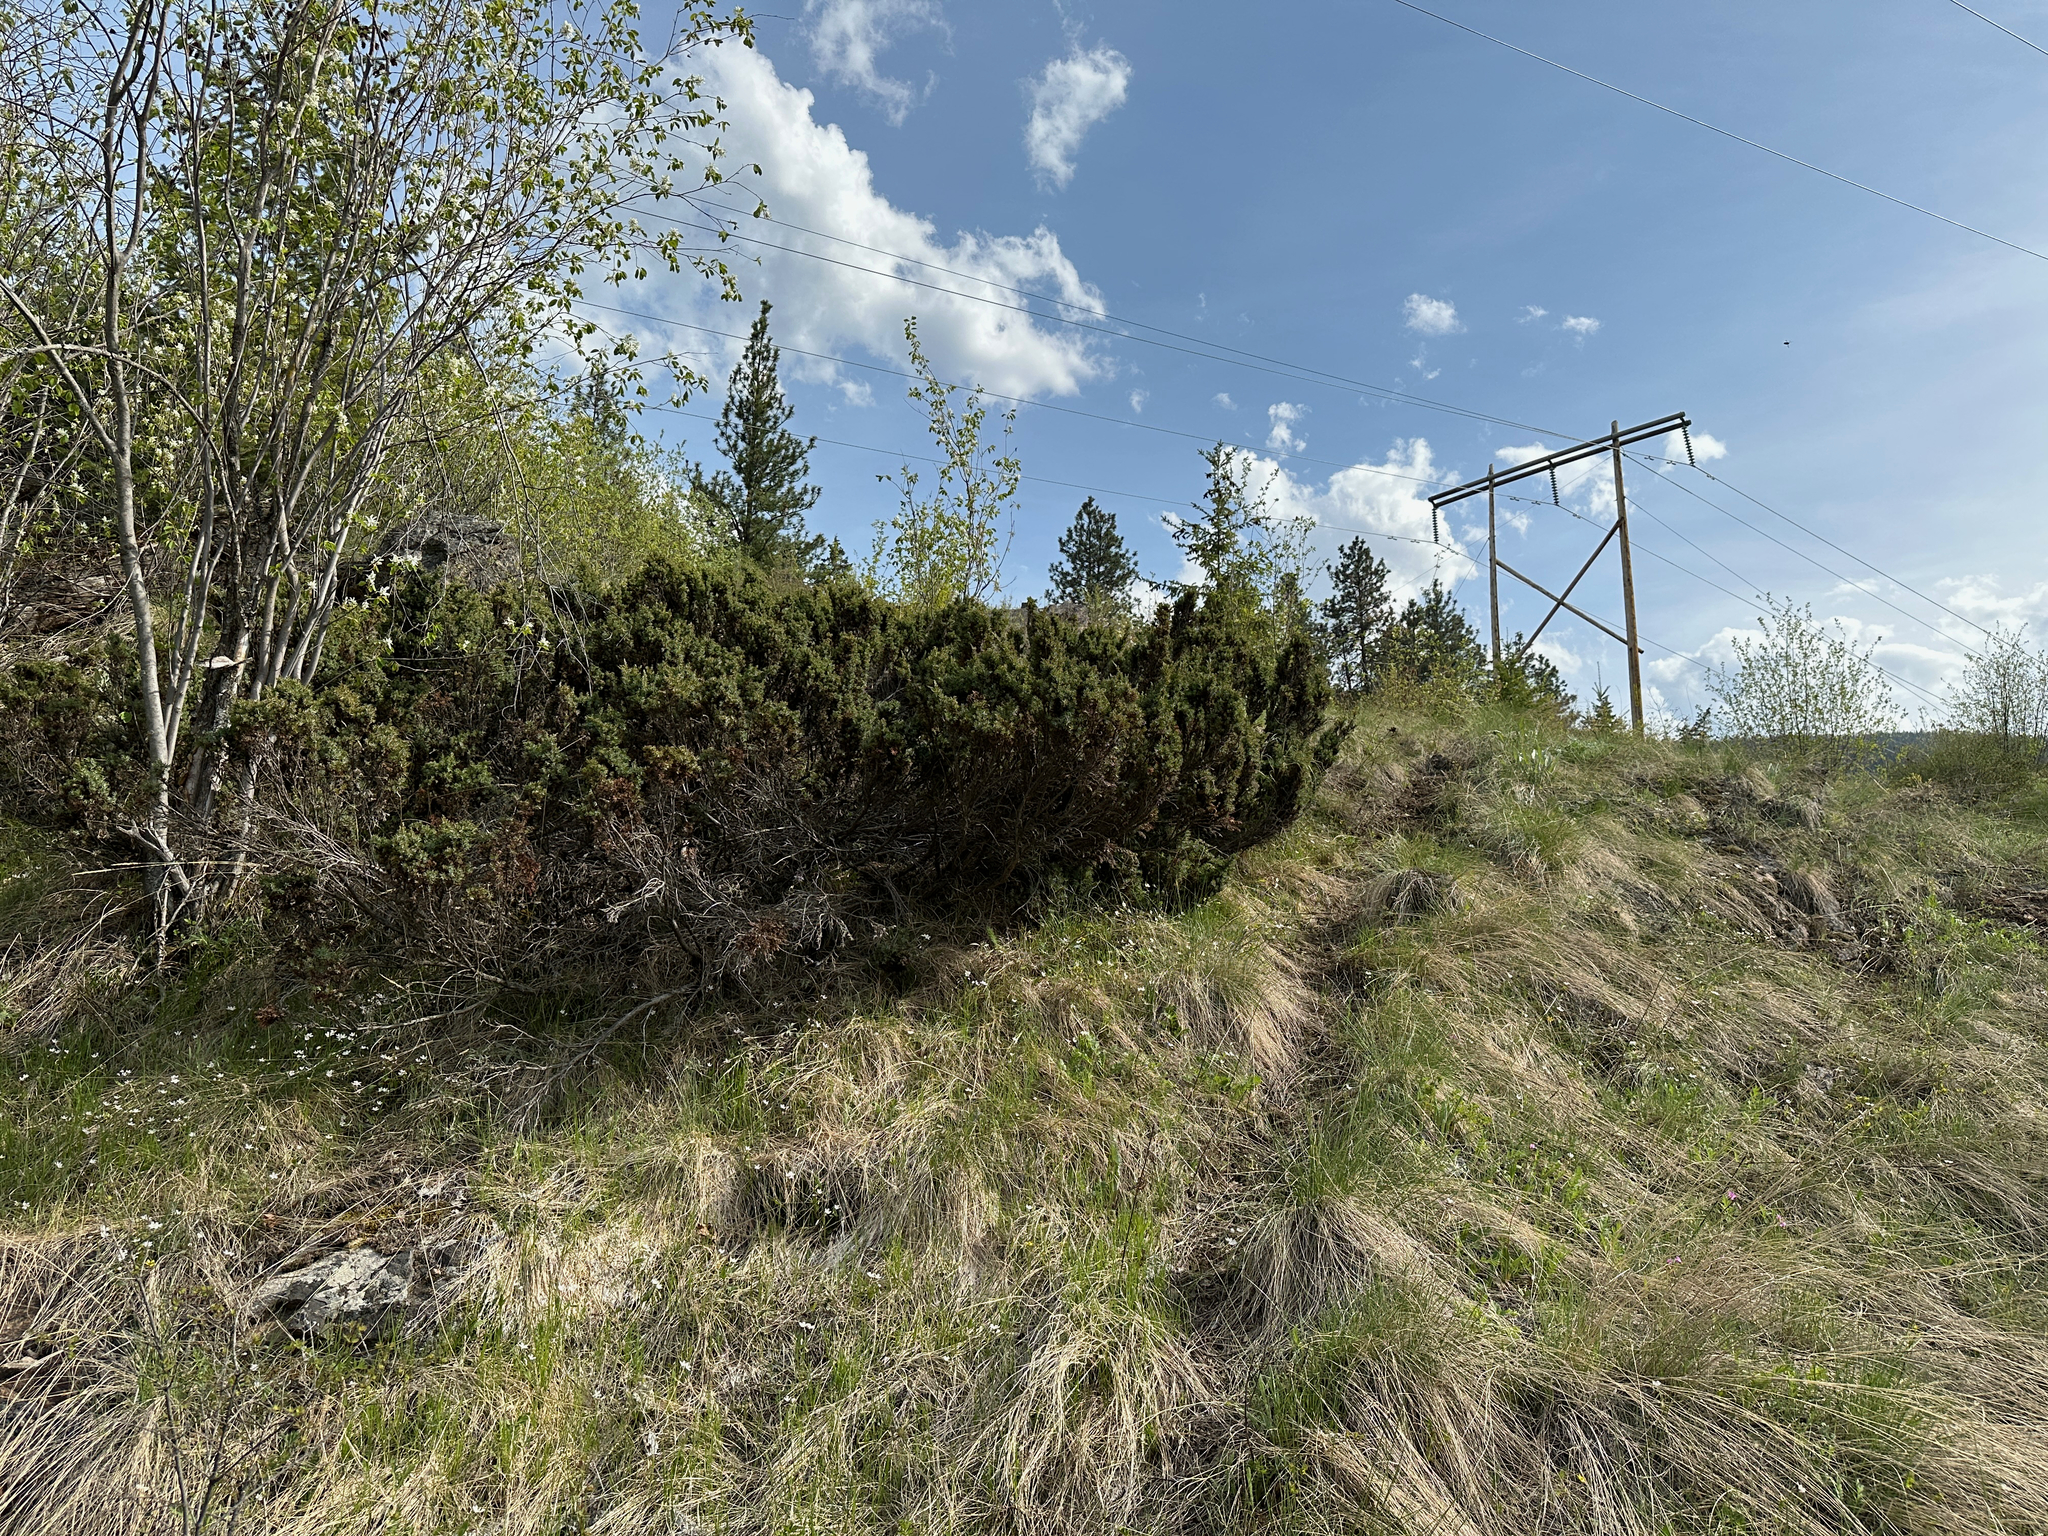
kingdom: Plantae
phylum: Tracheophyta
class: Pinopsida
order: Pinales
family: Cupressaceae
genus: Juniperus
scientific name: Juniperus communis
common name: Common juniper
